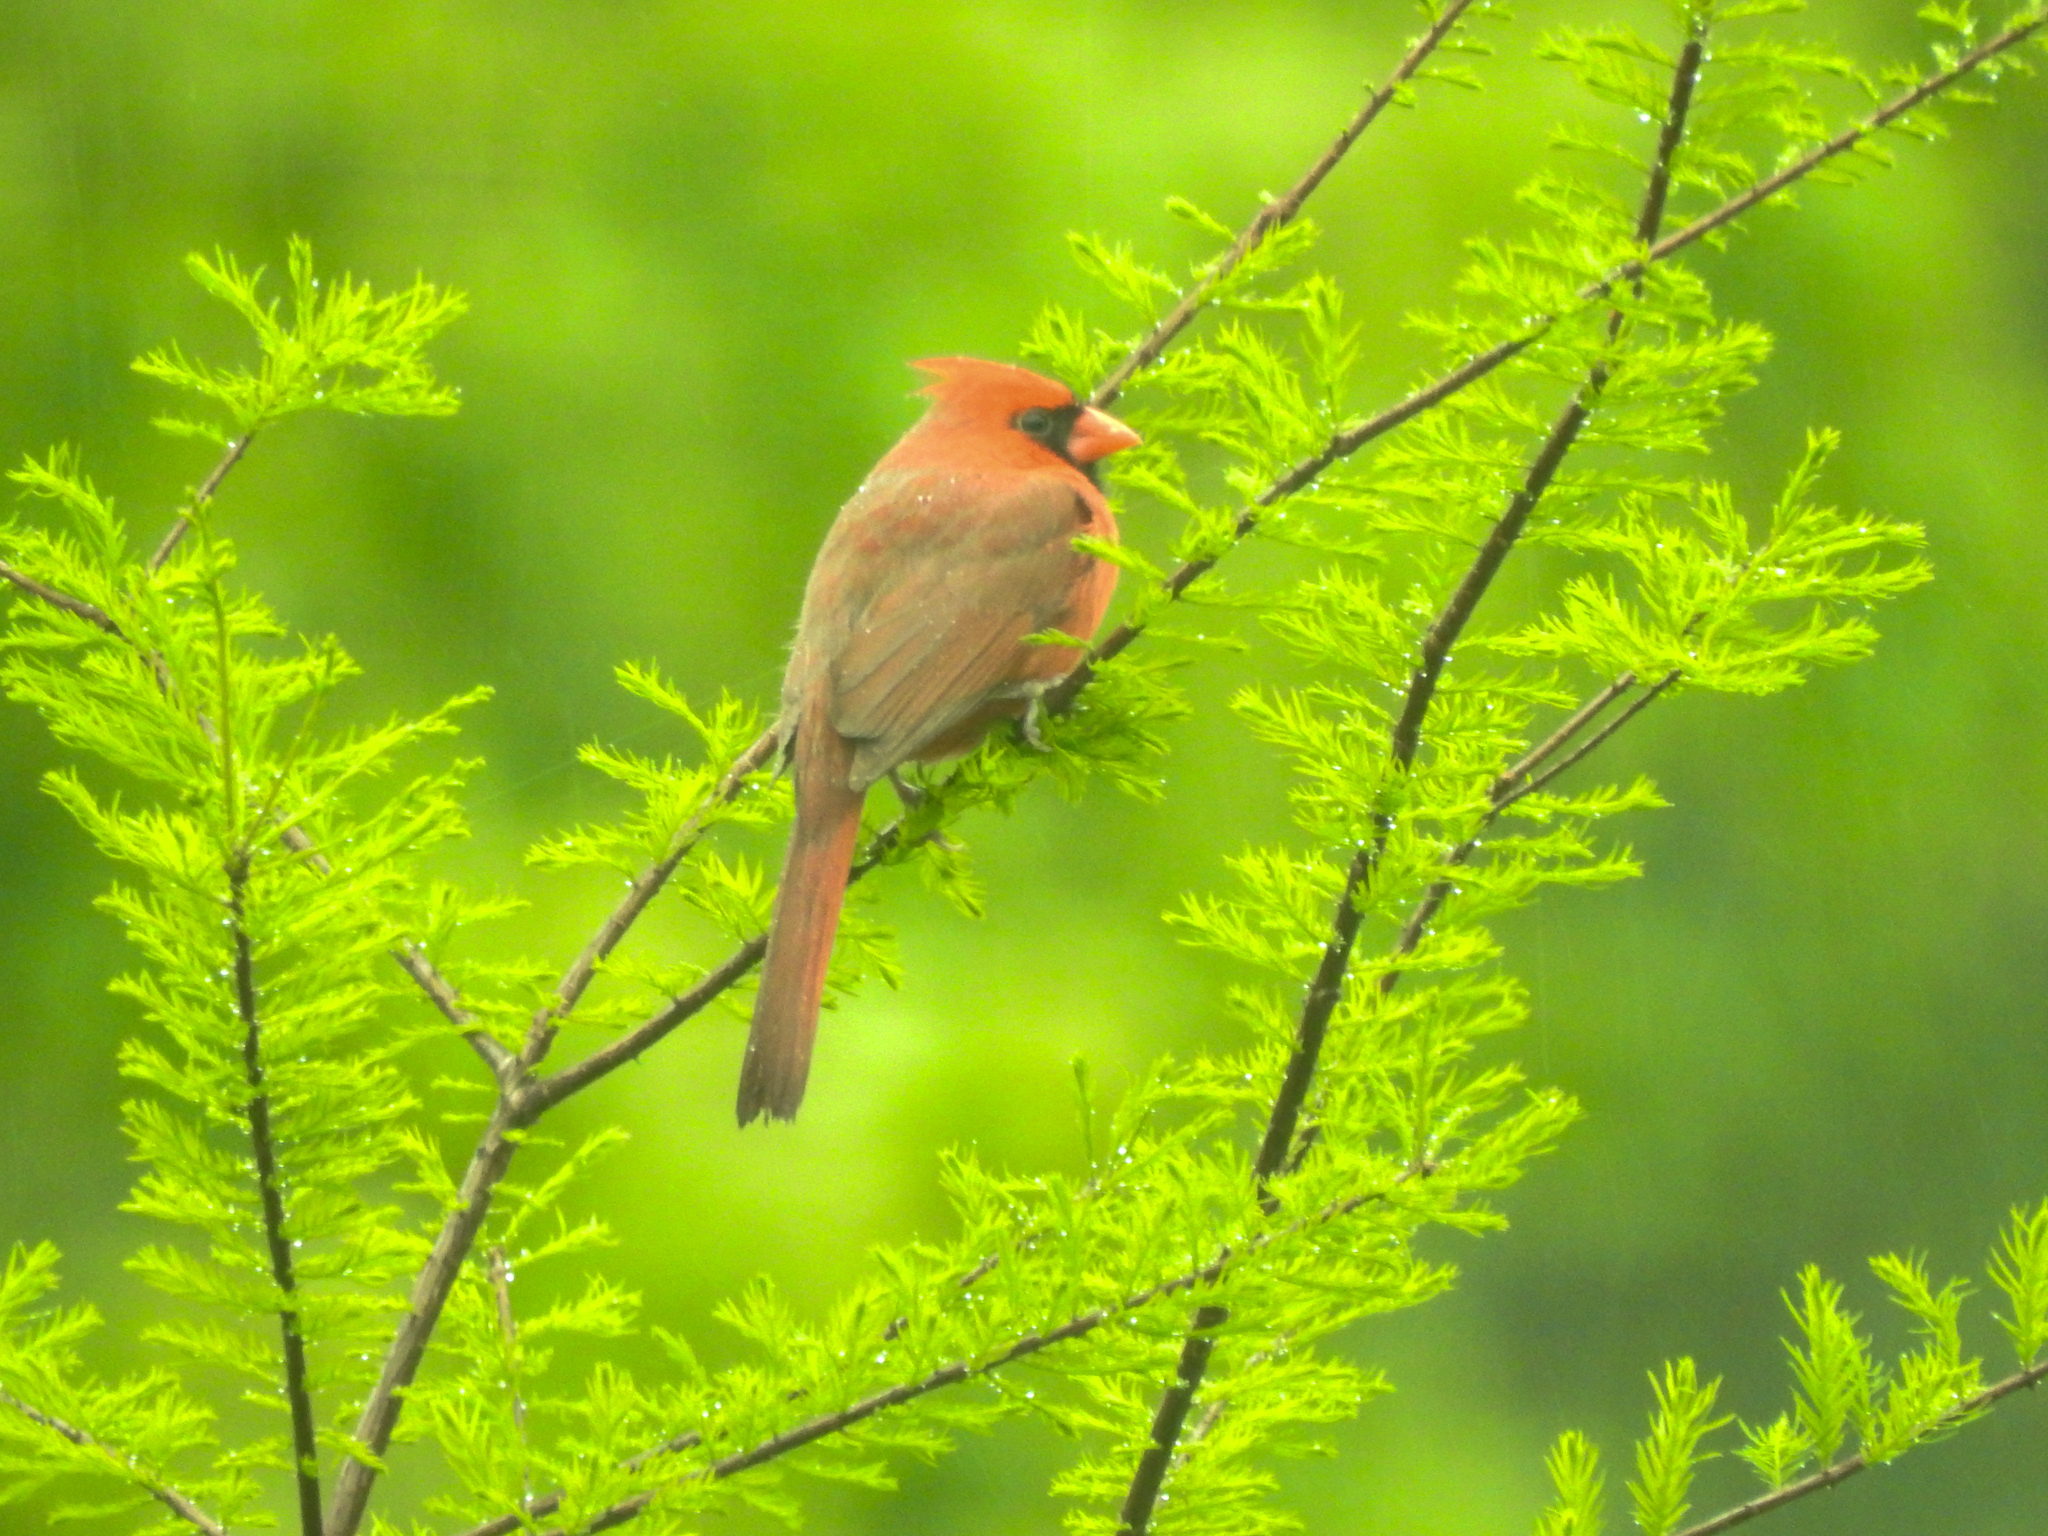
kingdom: Animalia
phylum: Chordata
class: Aves
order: Passeriformes
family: Cardinalidae
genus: Cardinalis
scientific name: Cardinalis cardinalis
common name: Northern cardinal
